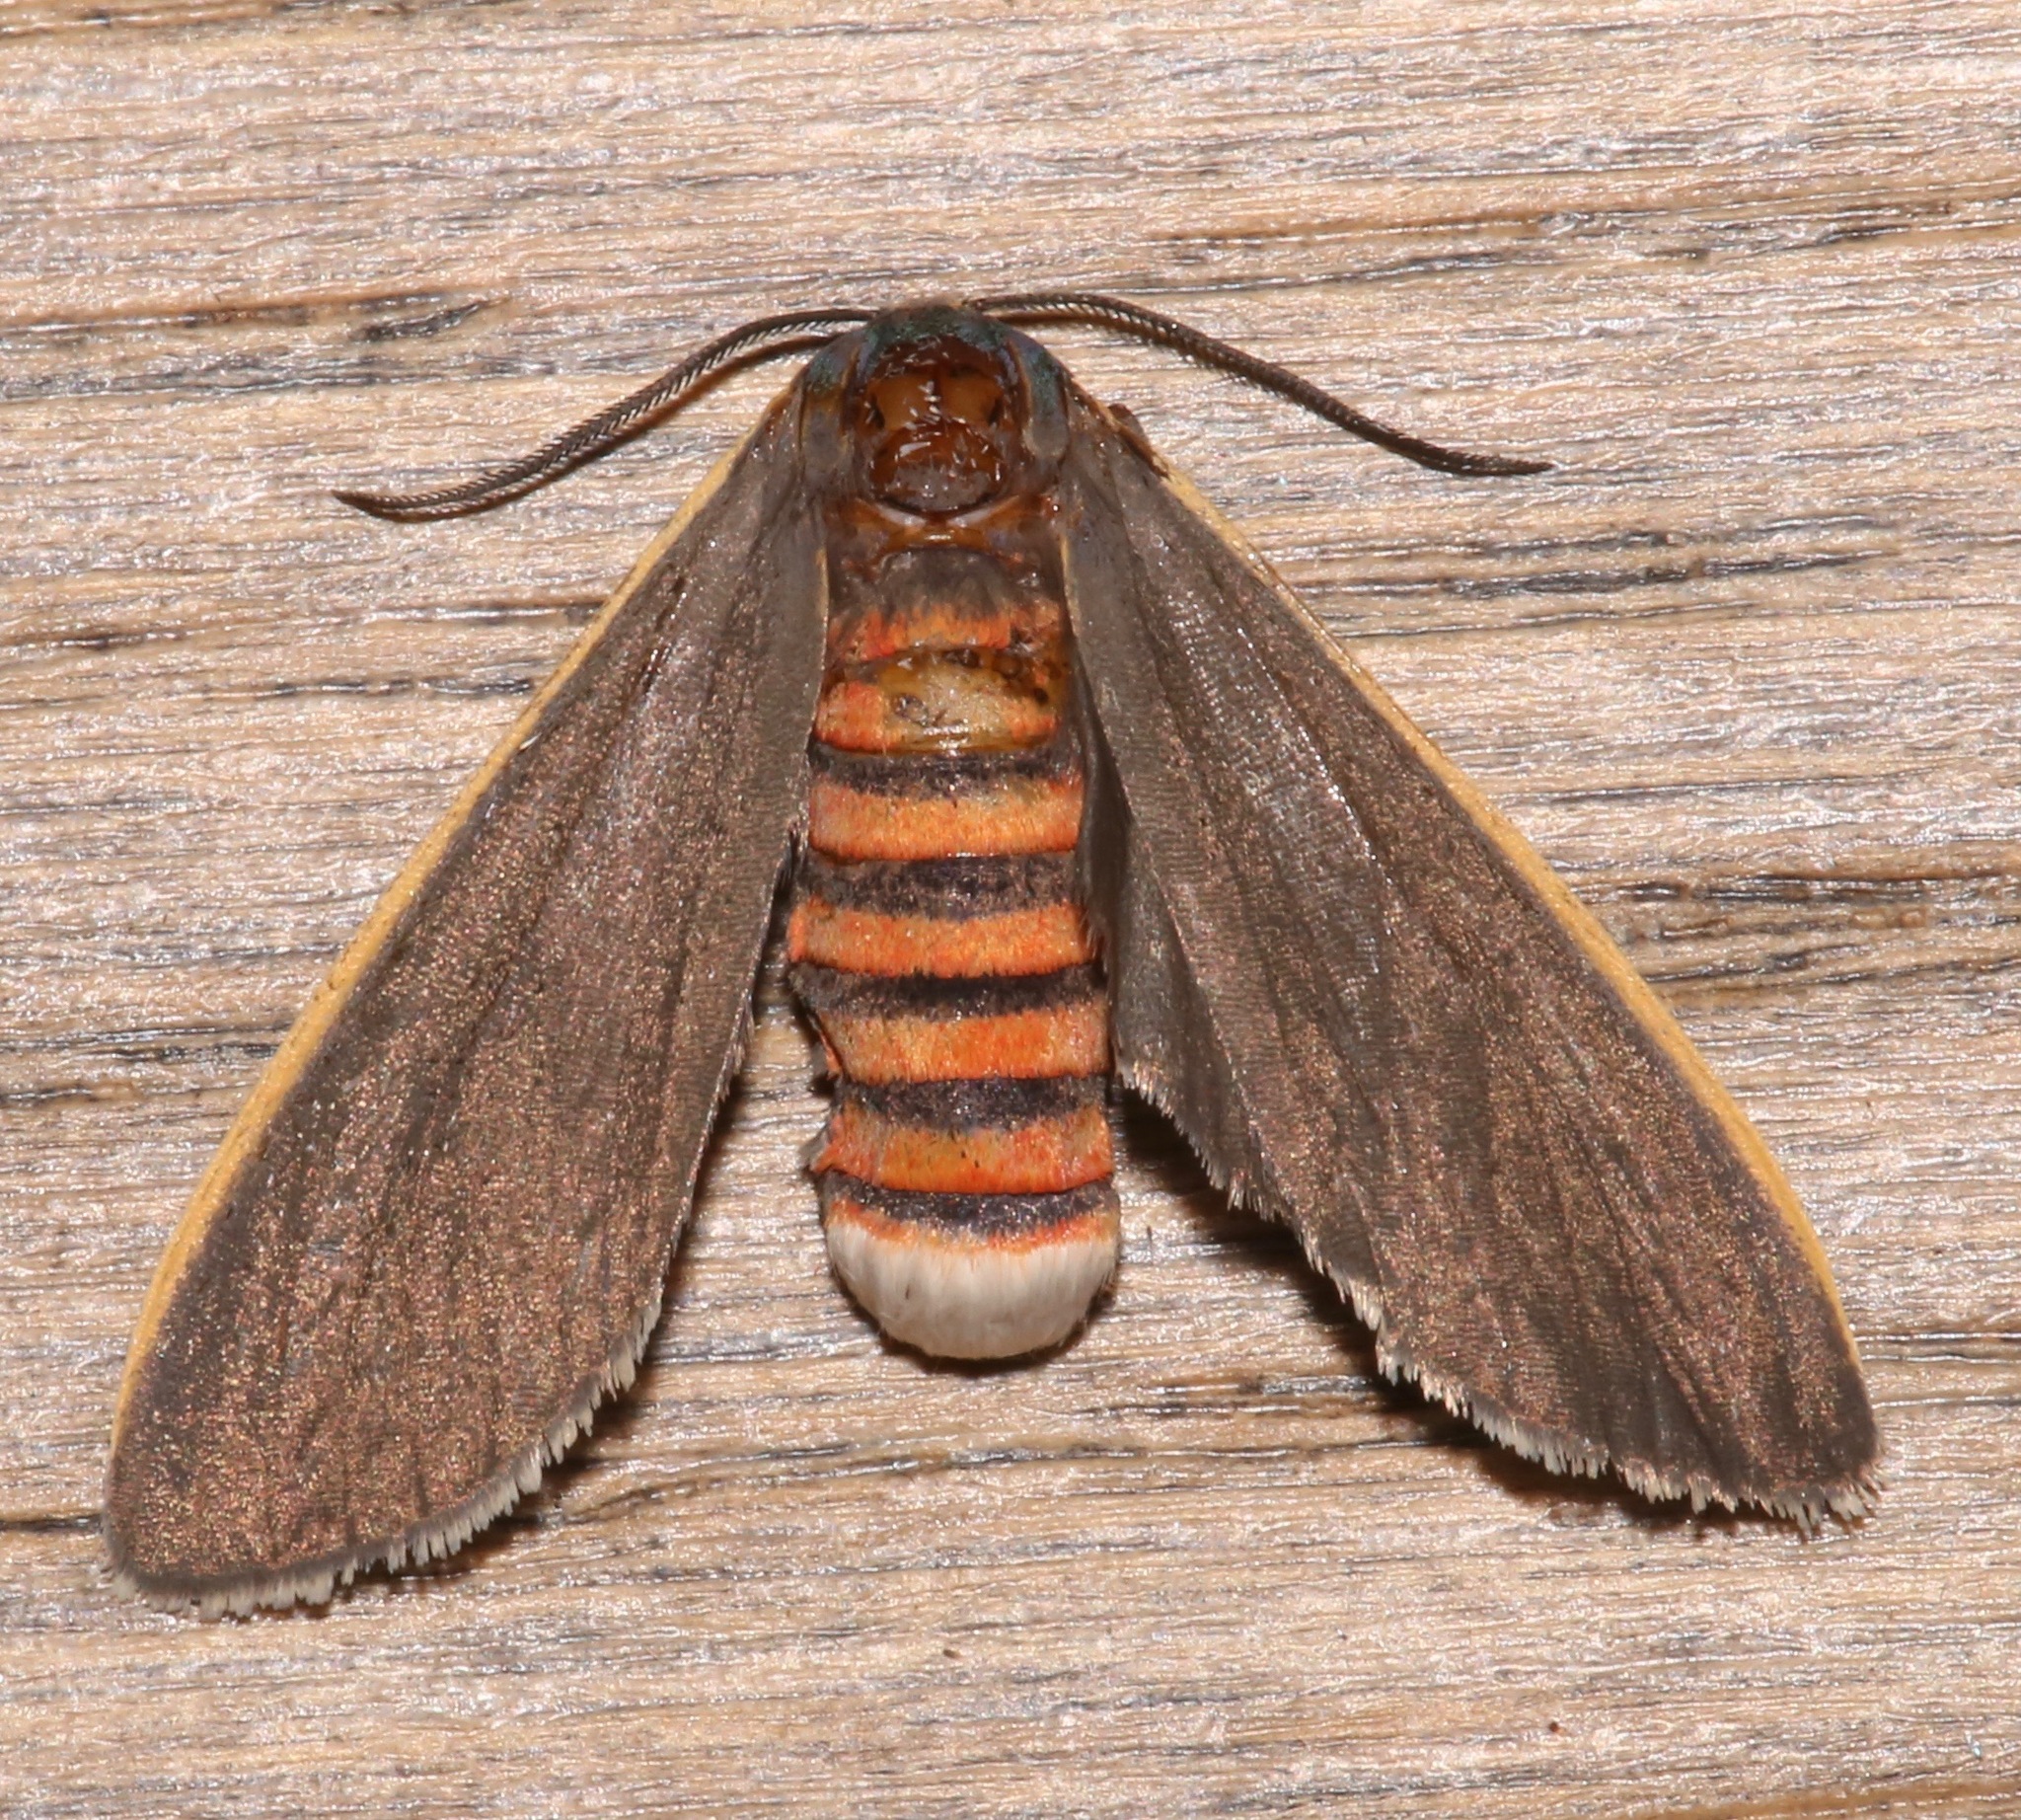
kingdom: Animalia
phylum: Arthropoda
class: Insecta
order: Lepidoptera
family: Erebidae
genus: Euchaetes
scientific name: Euchaetes antica
